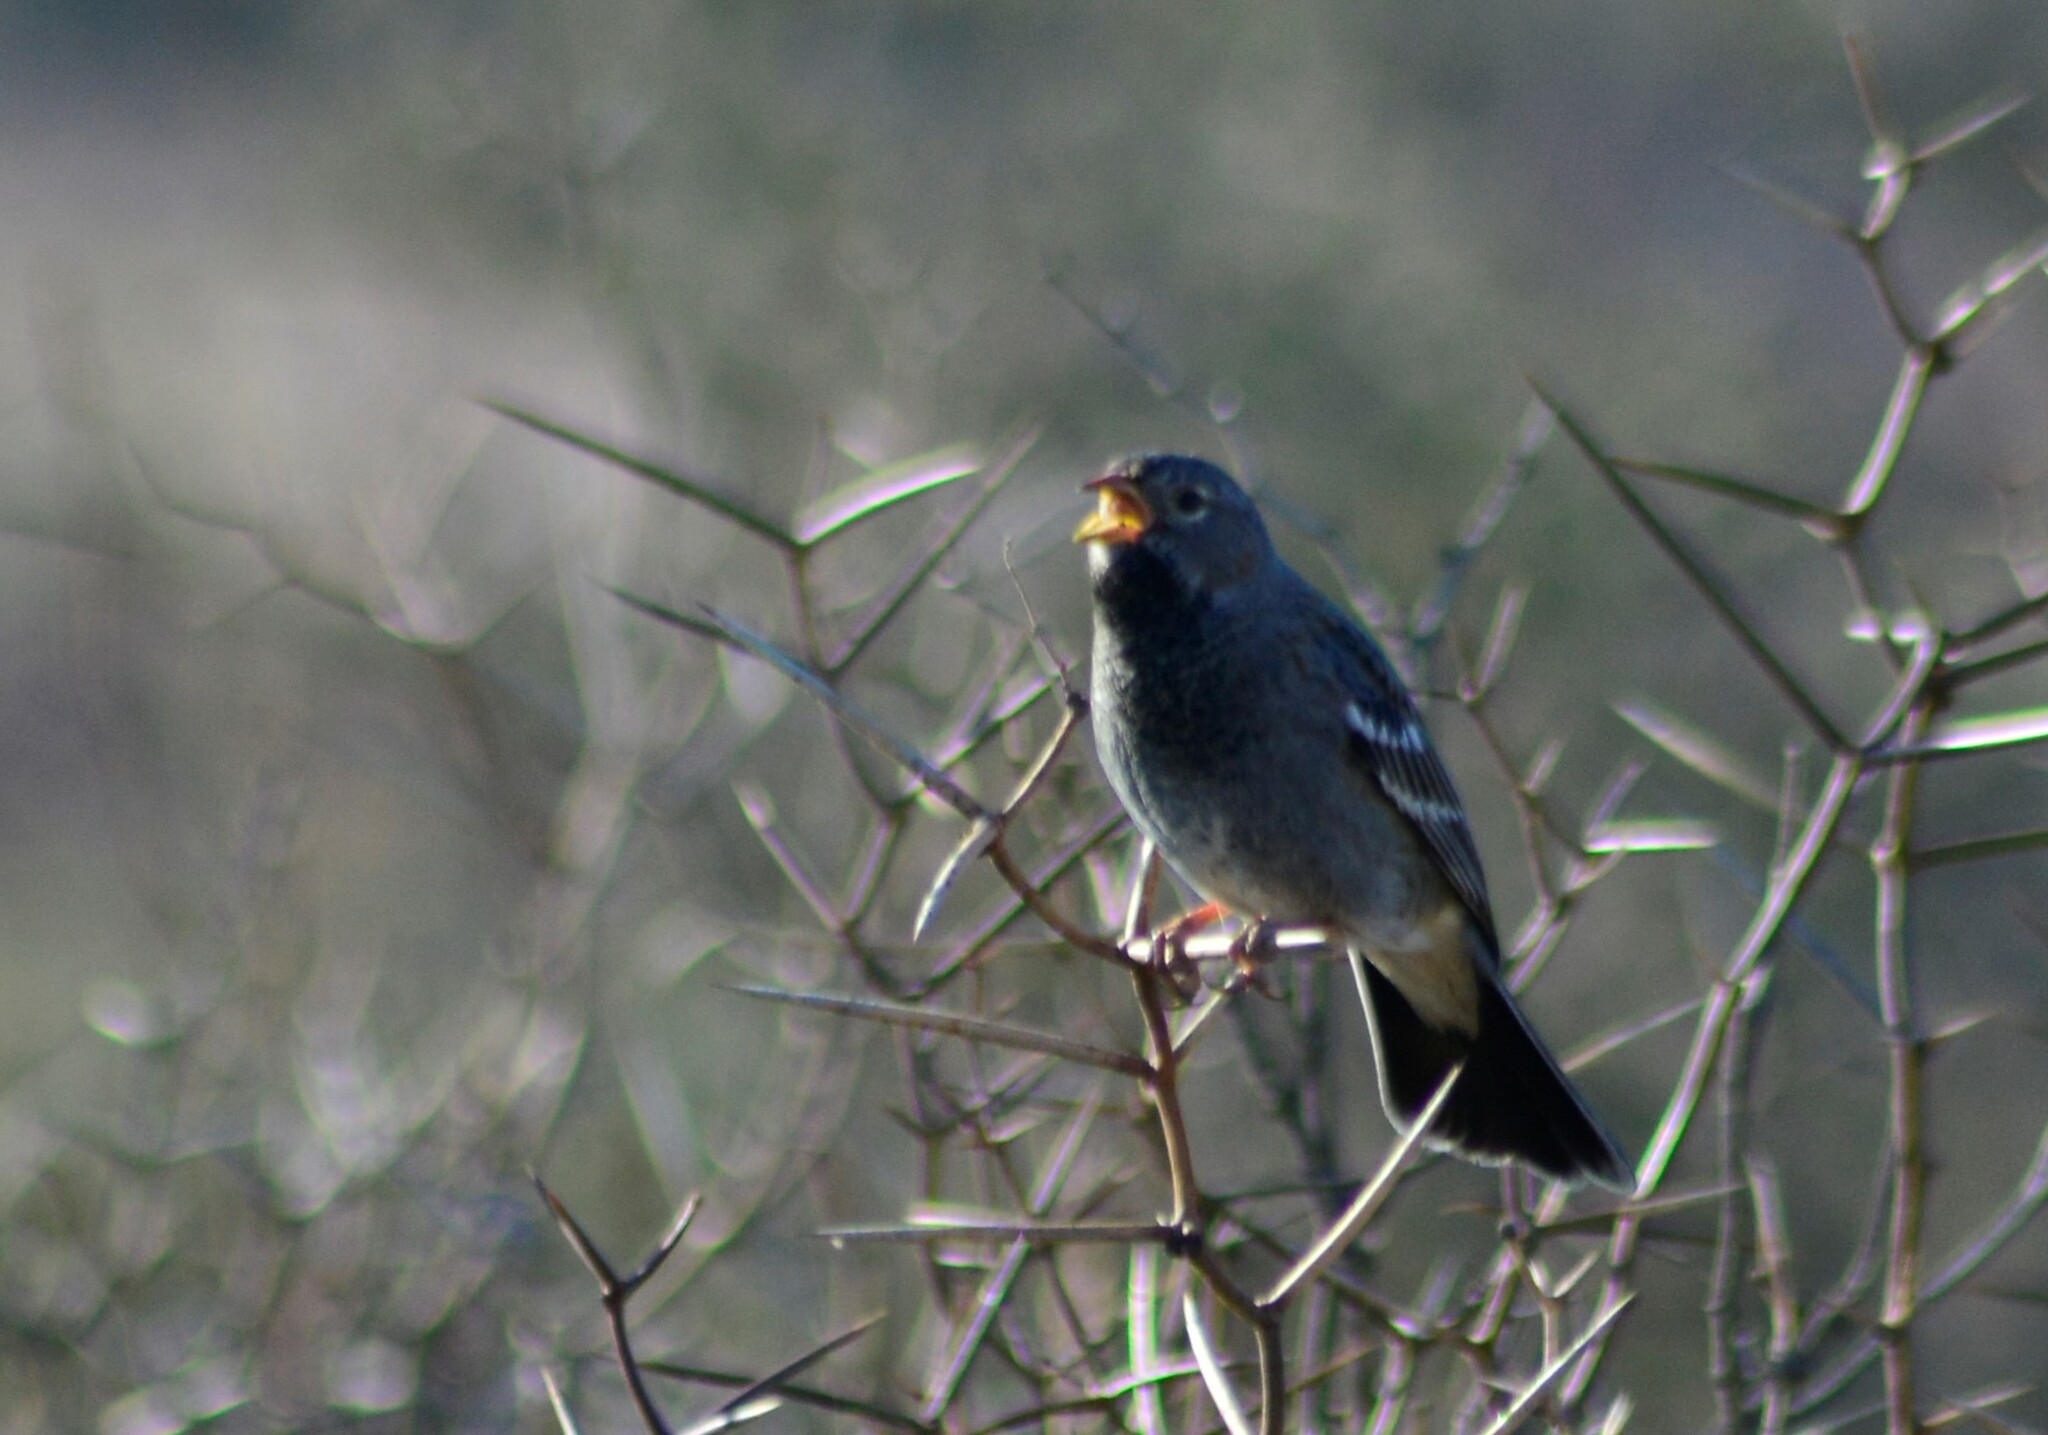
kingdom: Animalia
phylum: Chordata
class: Aves
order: Passeriformes
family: Thraupidae
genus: Rhopospina
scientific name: Rhopospina fruticeti
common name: Mourning sierra finch
